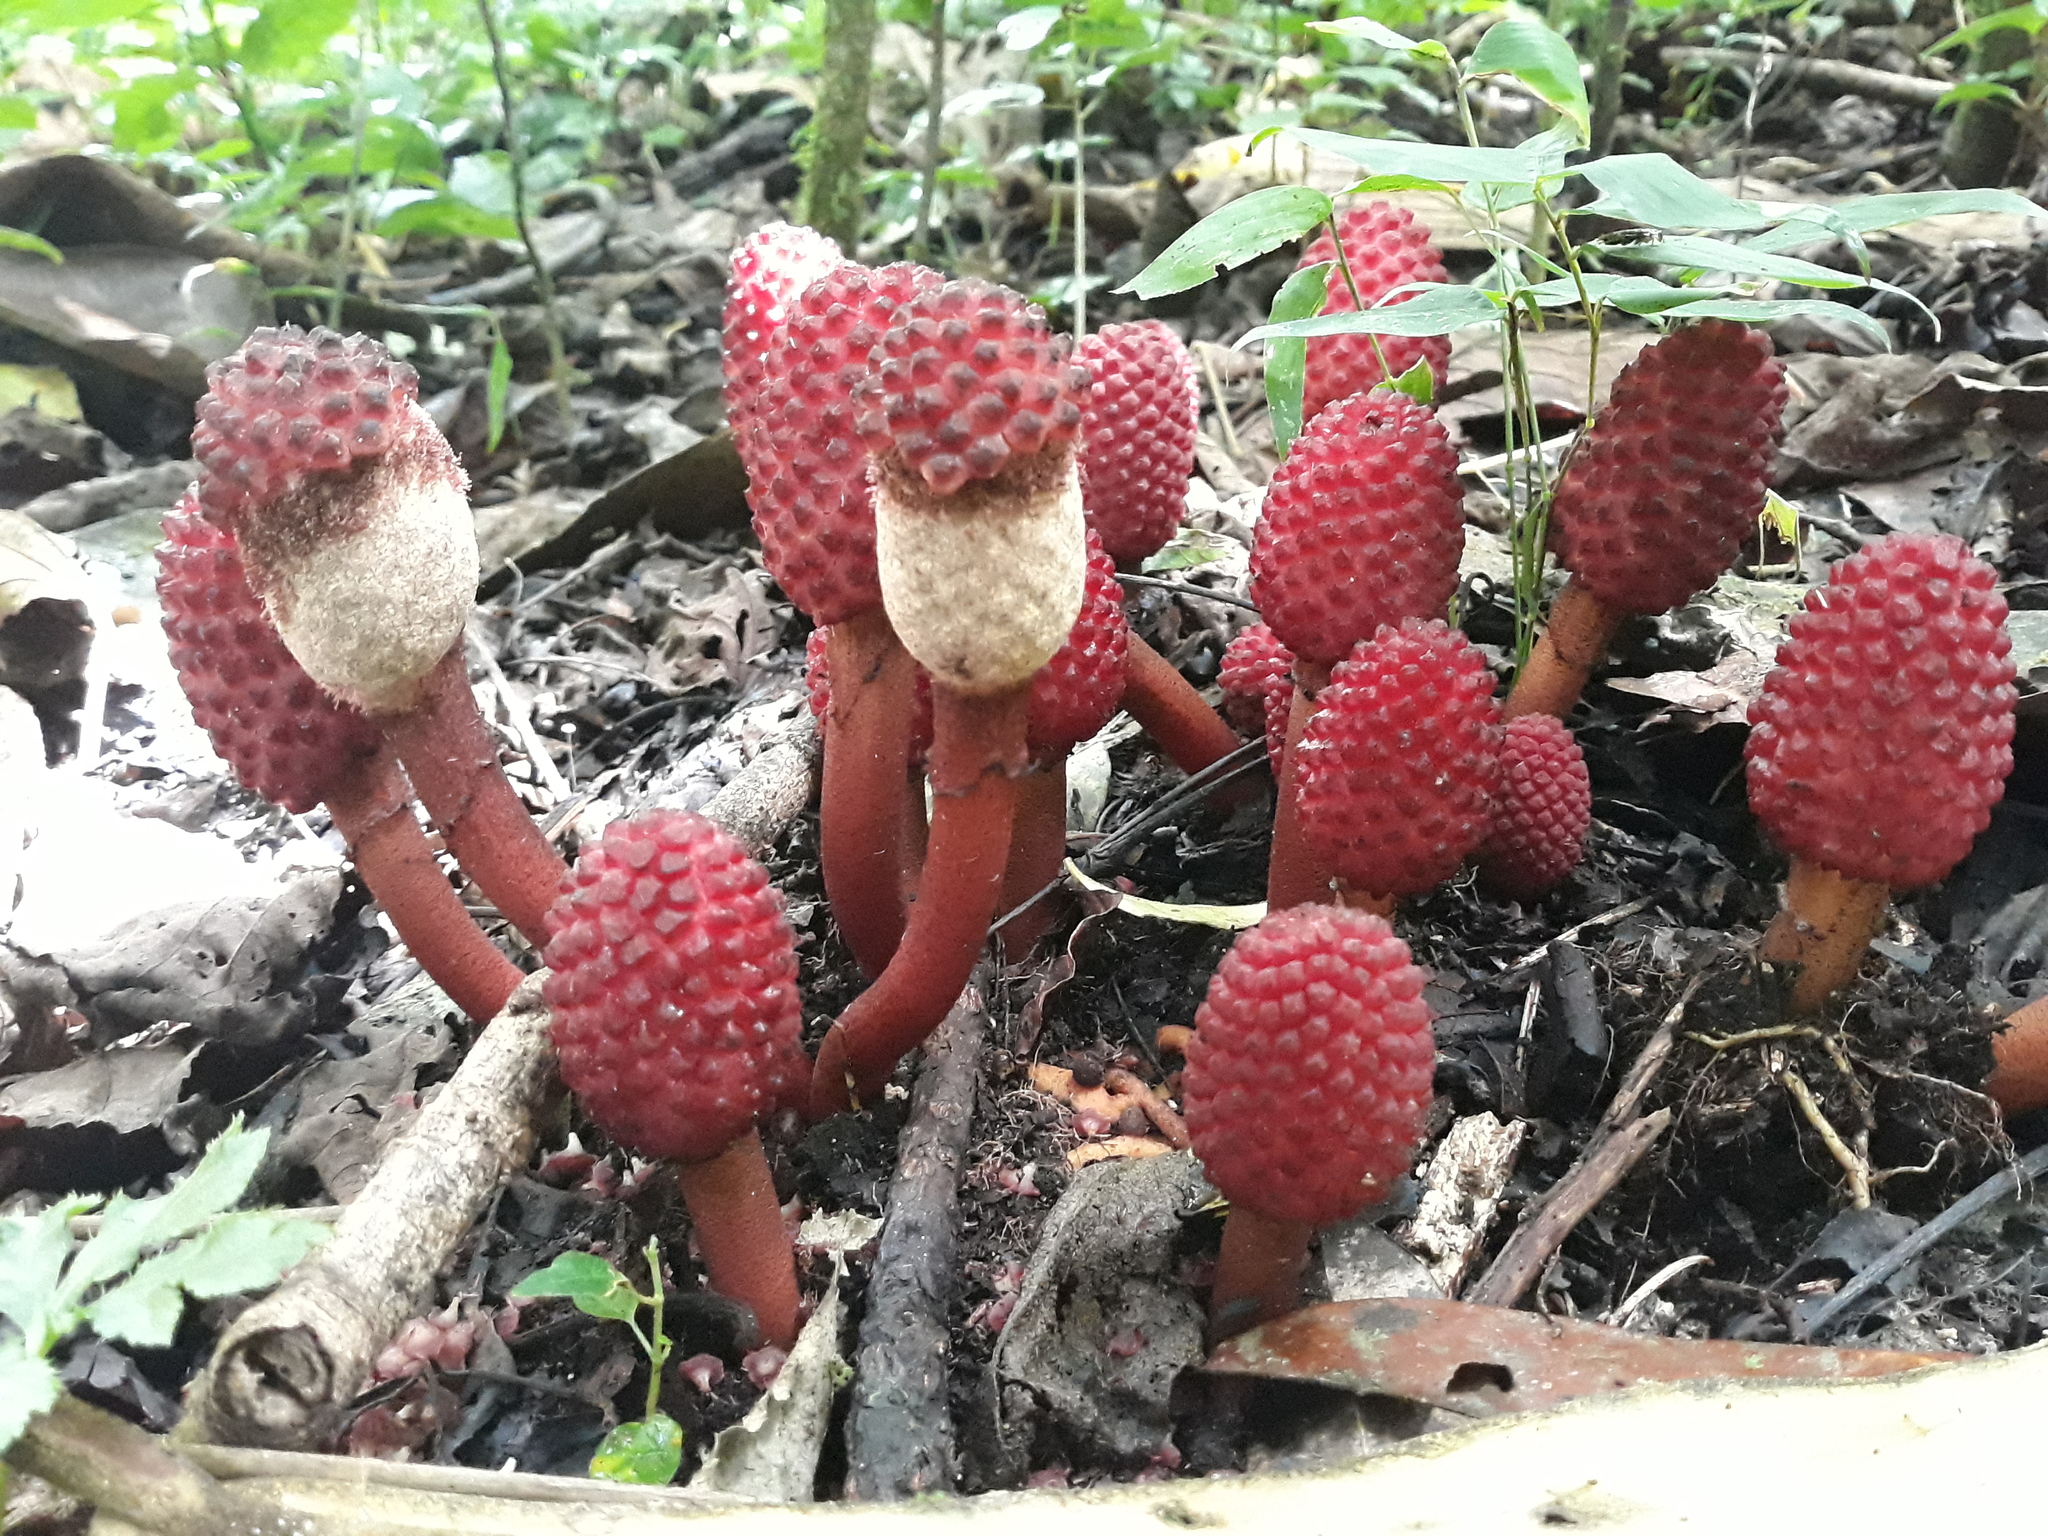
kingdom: Plantae
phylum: Tracheophyta
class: Magnoliopsida
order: Santalales
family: Balanophoraceae
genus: Helosis
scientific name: Helosis cayennensis
